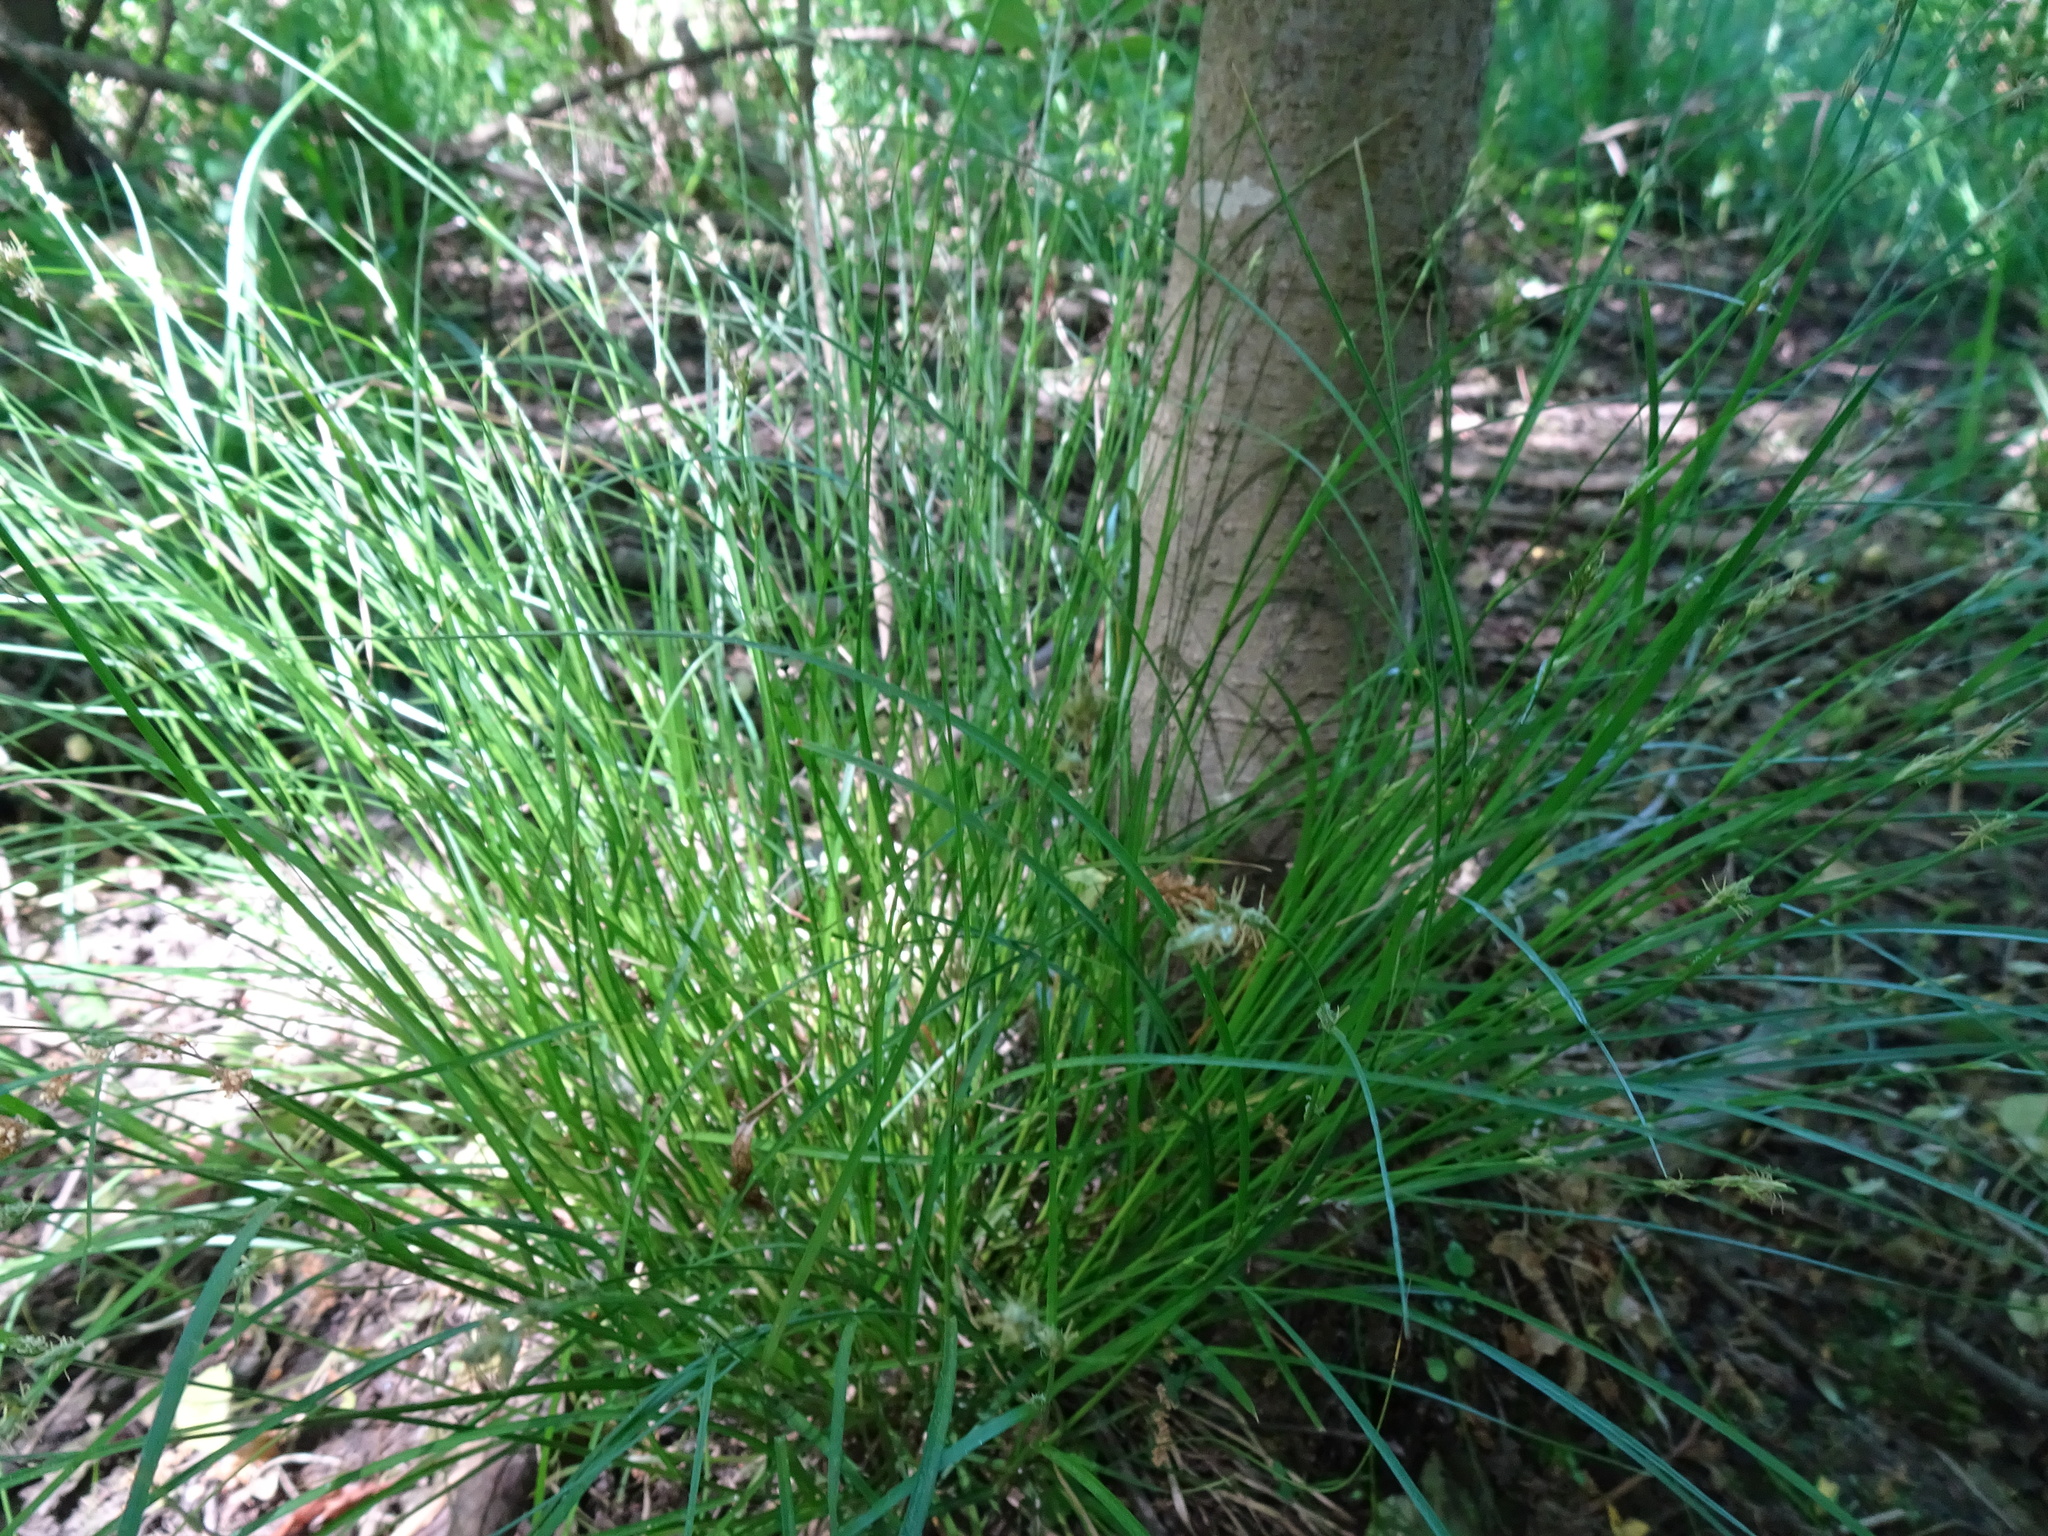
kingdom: Plantae
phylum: Tracheophyta
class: Liliopsida
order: Poales
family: Cyperaceae
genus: Carex
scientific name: Carex remota
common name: Remote sedge
